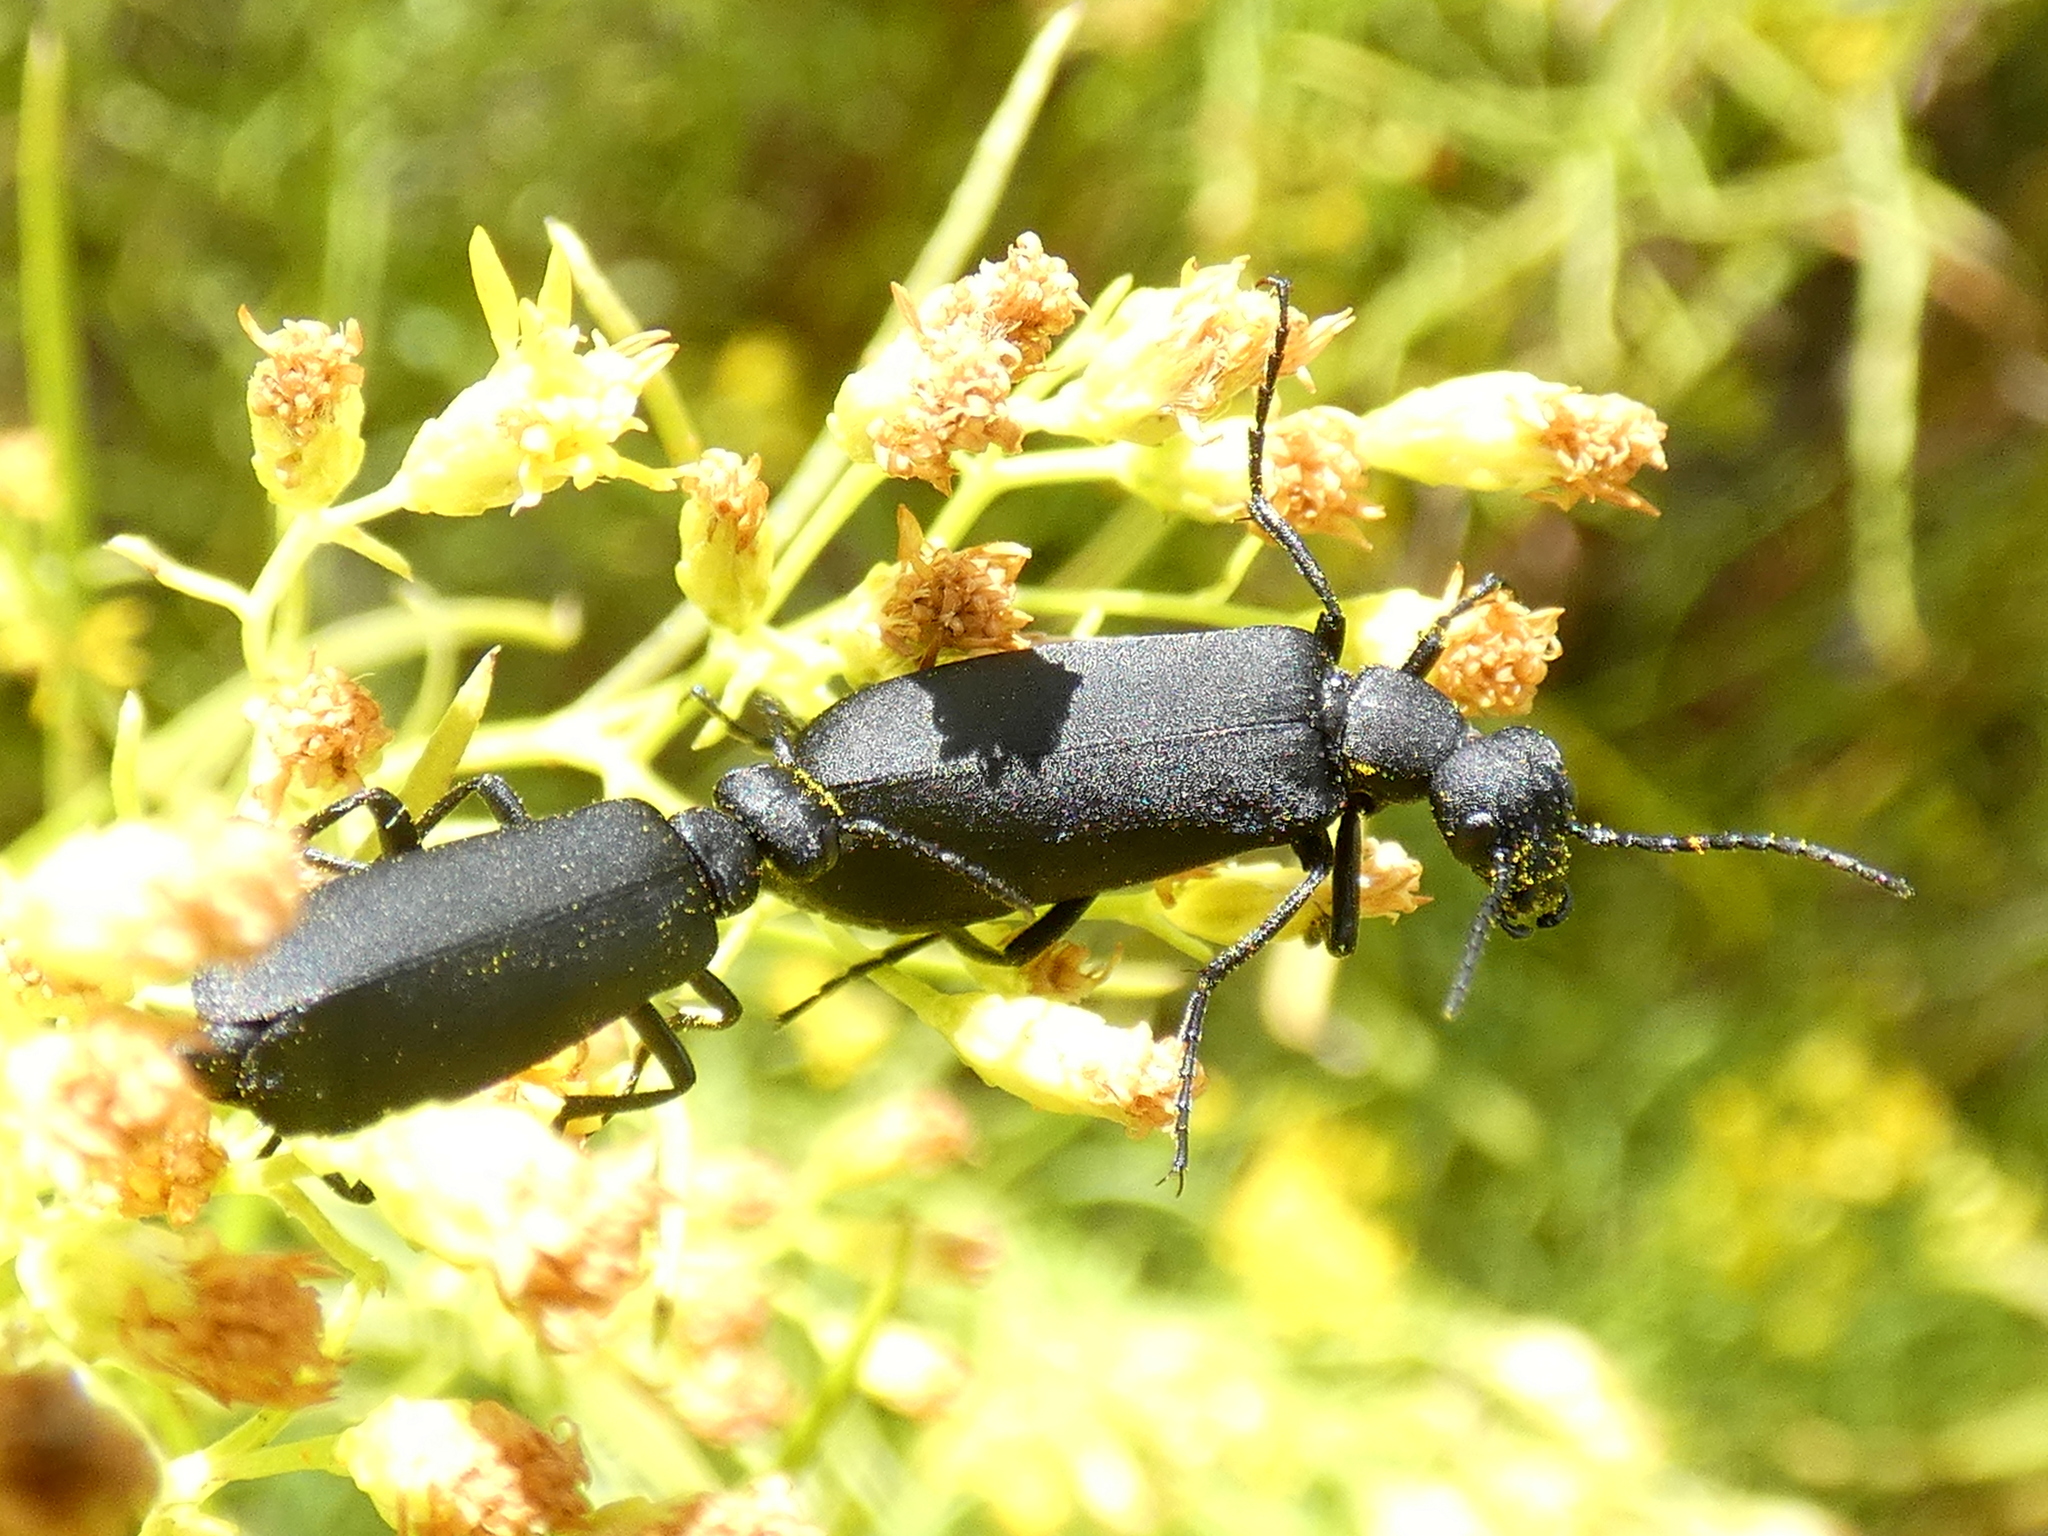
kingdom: Animalia
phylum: Arthropoda
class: Insecta
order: Coleoptera
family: Meloidae
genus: Epicauta
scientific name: Epicauta pensylvanica
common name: Black blister beetle
